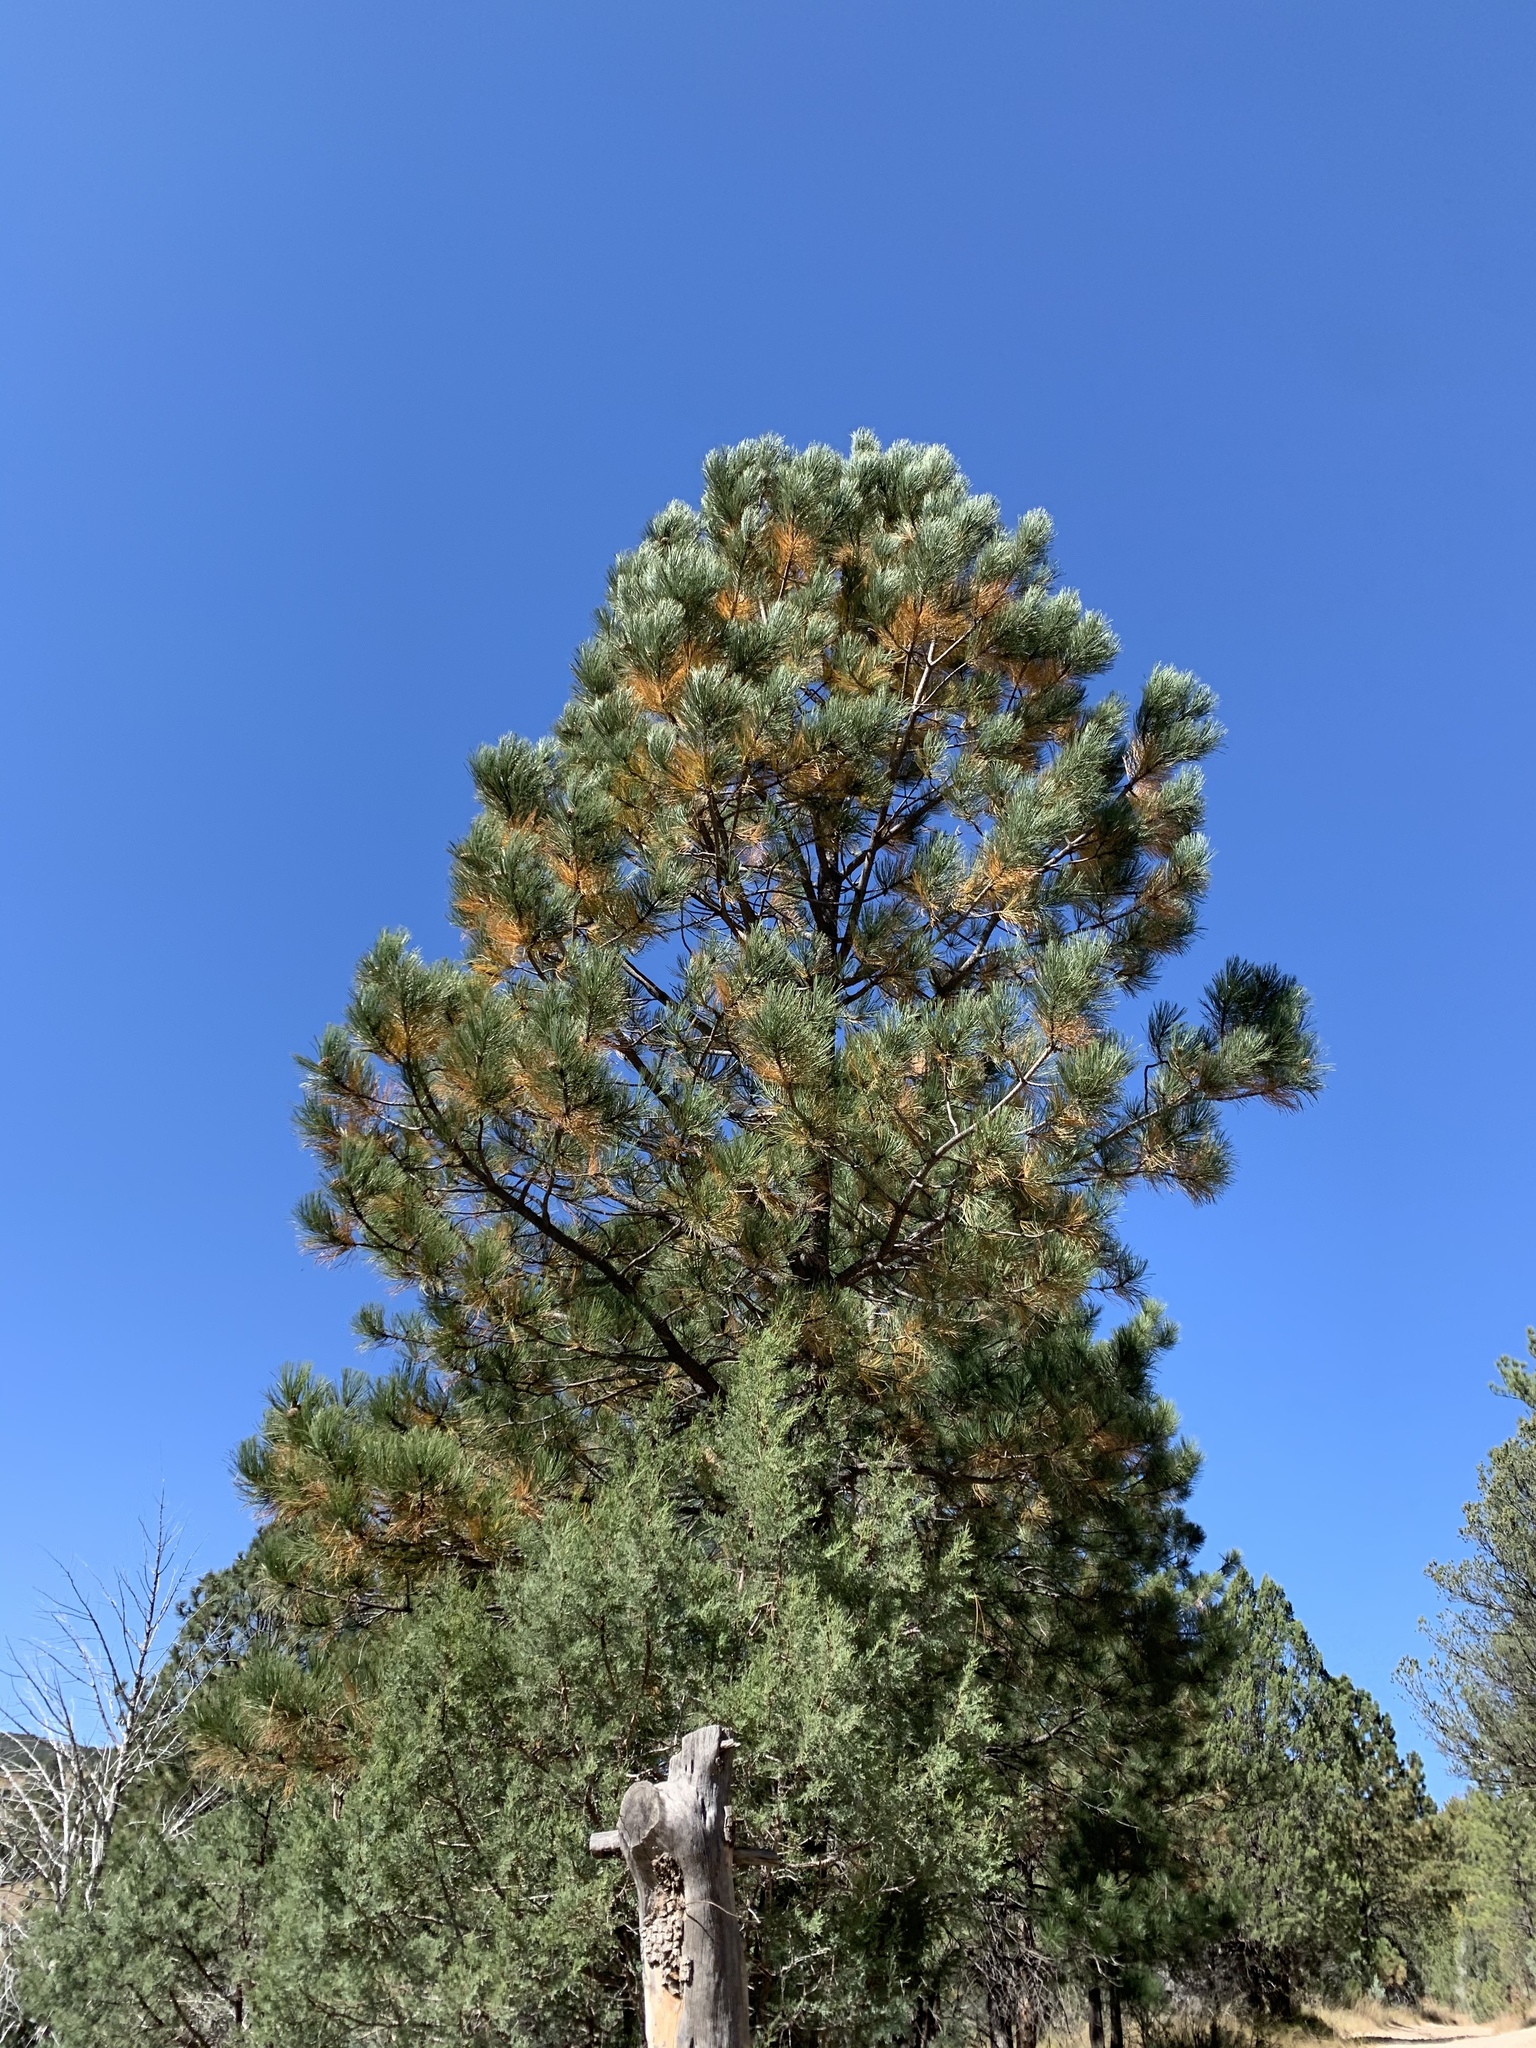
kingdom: Plantae
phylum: Tracheophyta
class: Pinopsida
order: Pinales
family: Pinaceae
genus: Pinus
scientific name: Pinus ponderosa
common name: Western yellow-pine
